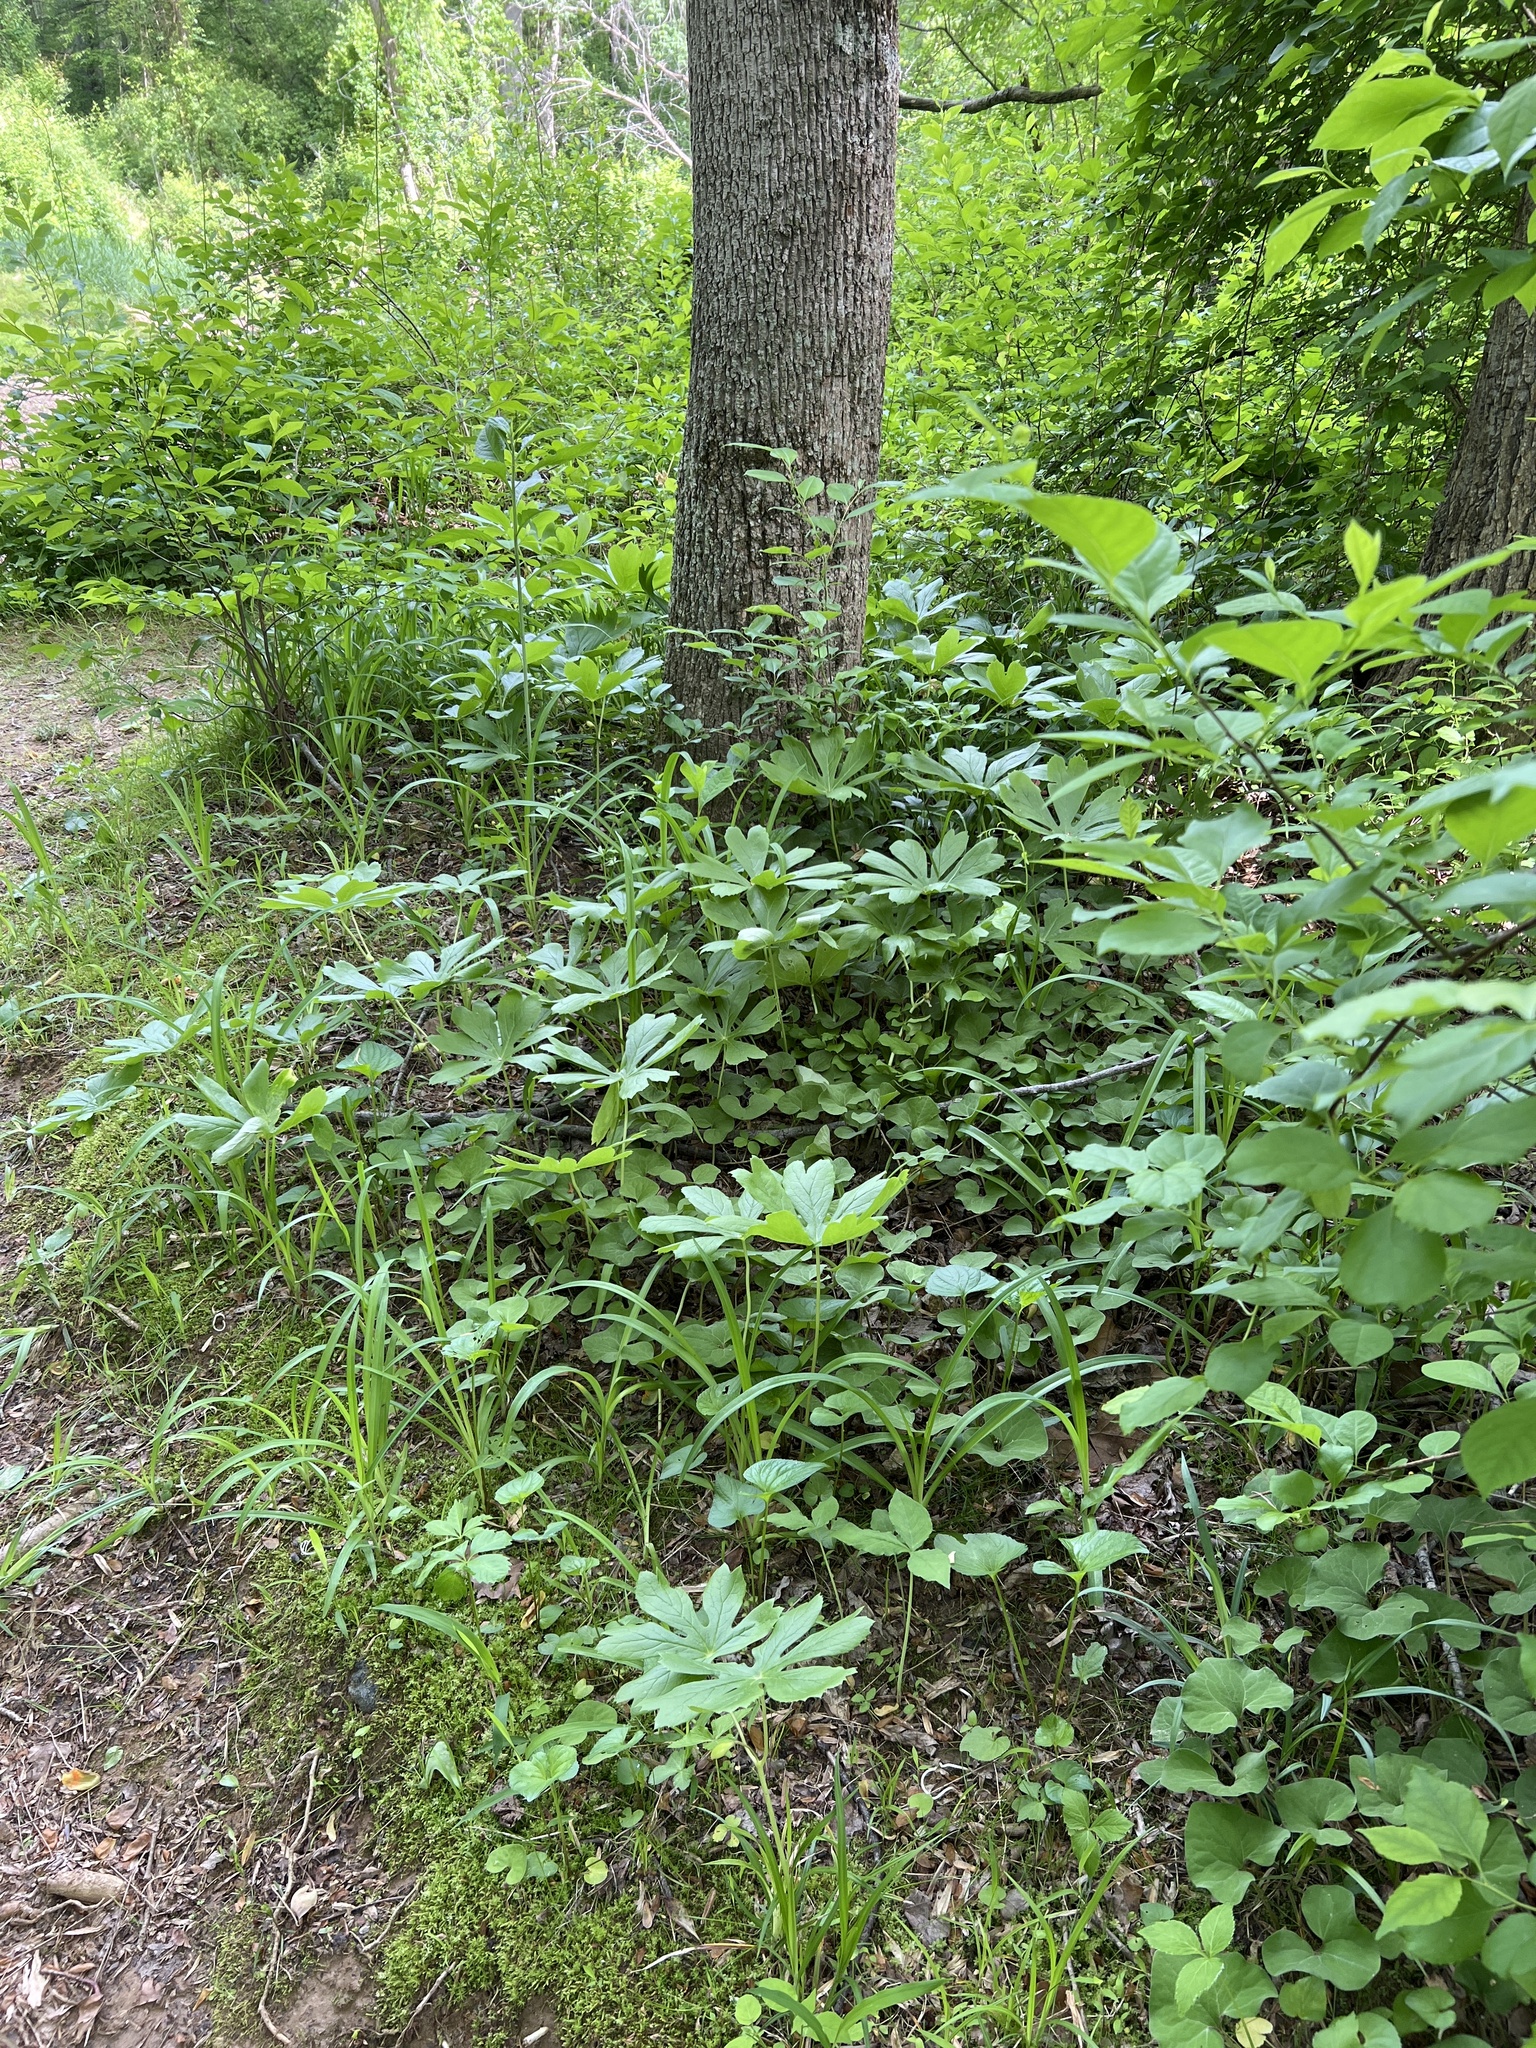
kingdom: Plantae
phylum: Tracheophyta
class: Magnoliopsida
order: Piperales
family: Aristolochiaceae
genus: Asarum
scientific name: Asarum canadense
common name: Wild ginger
